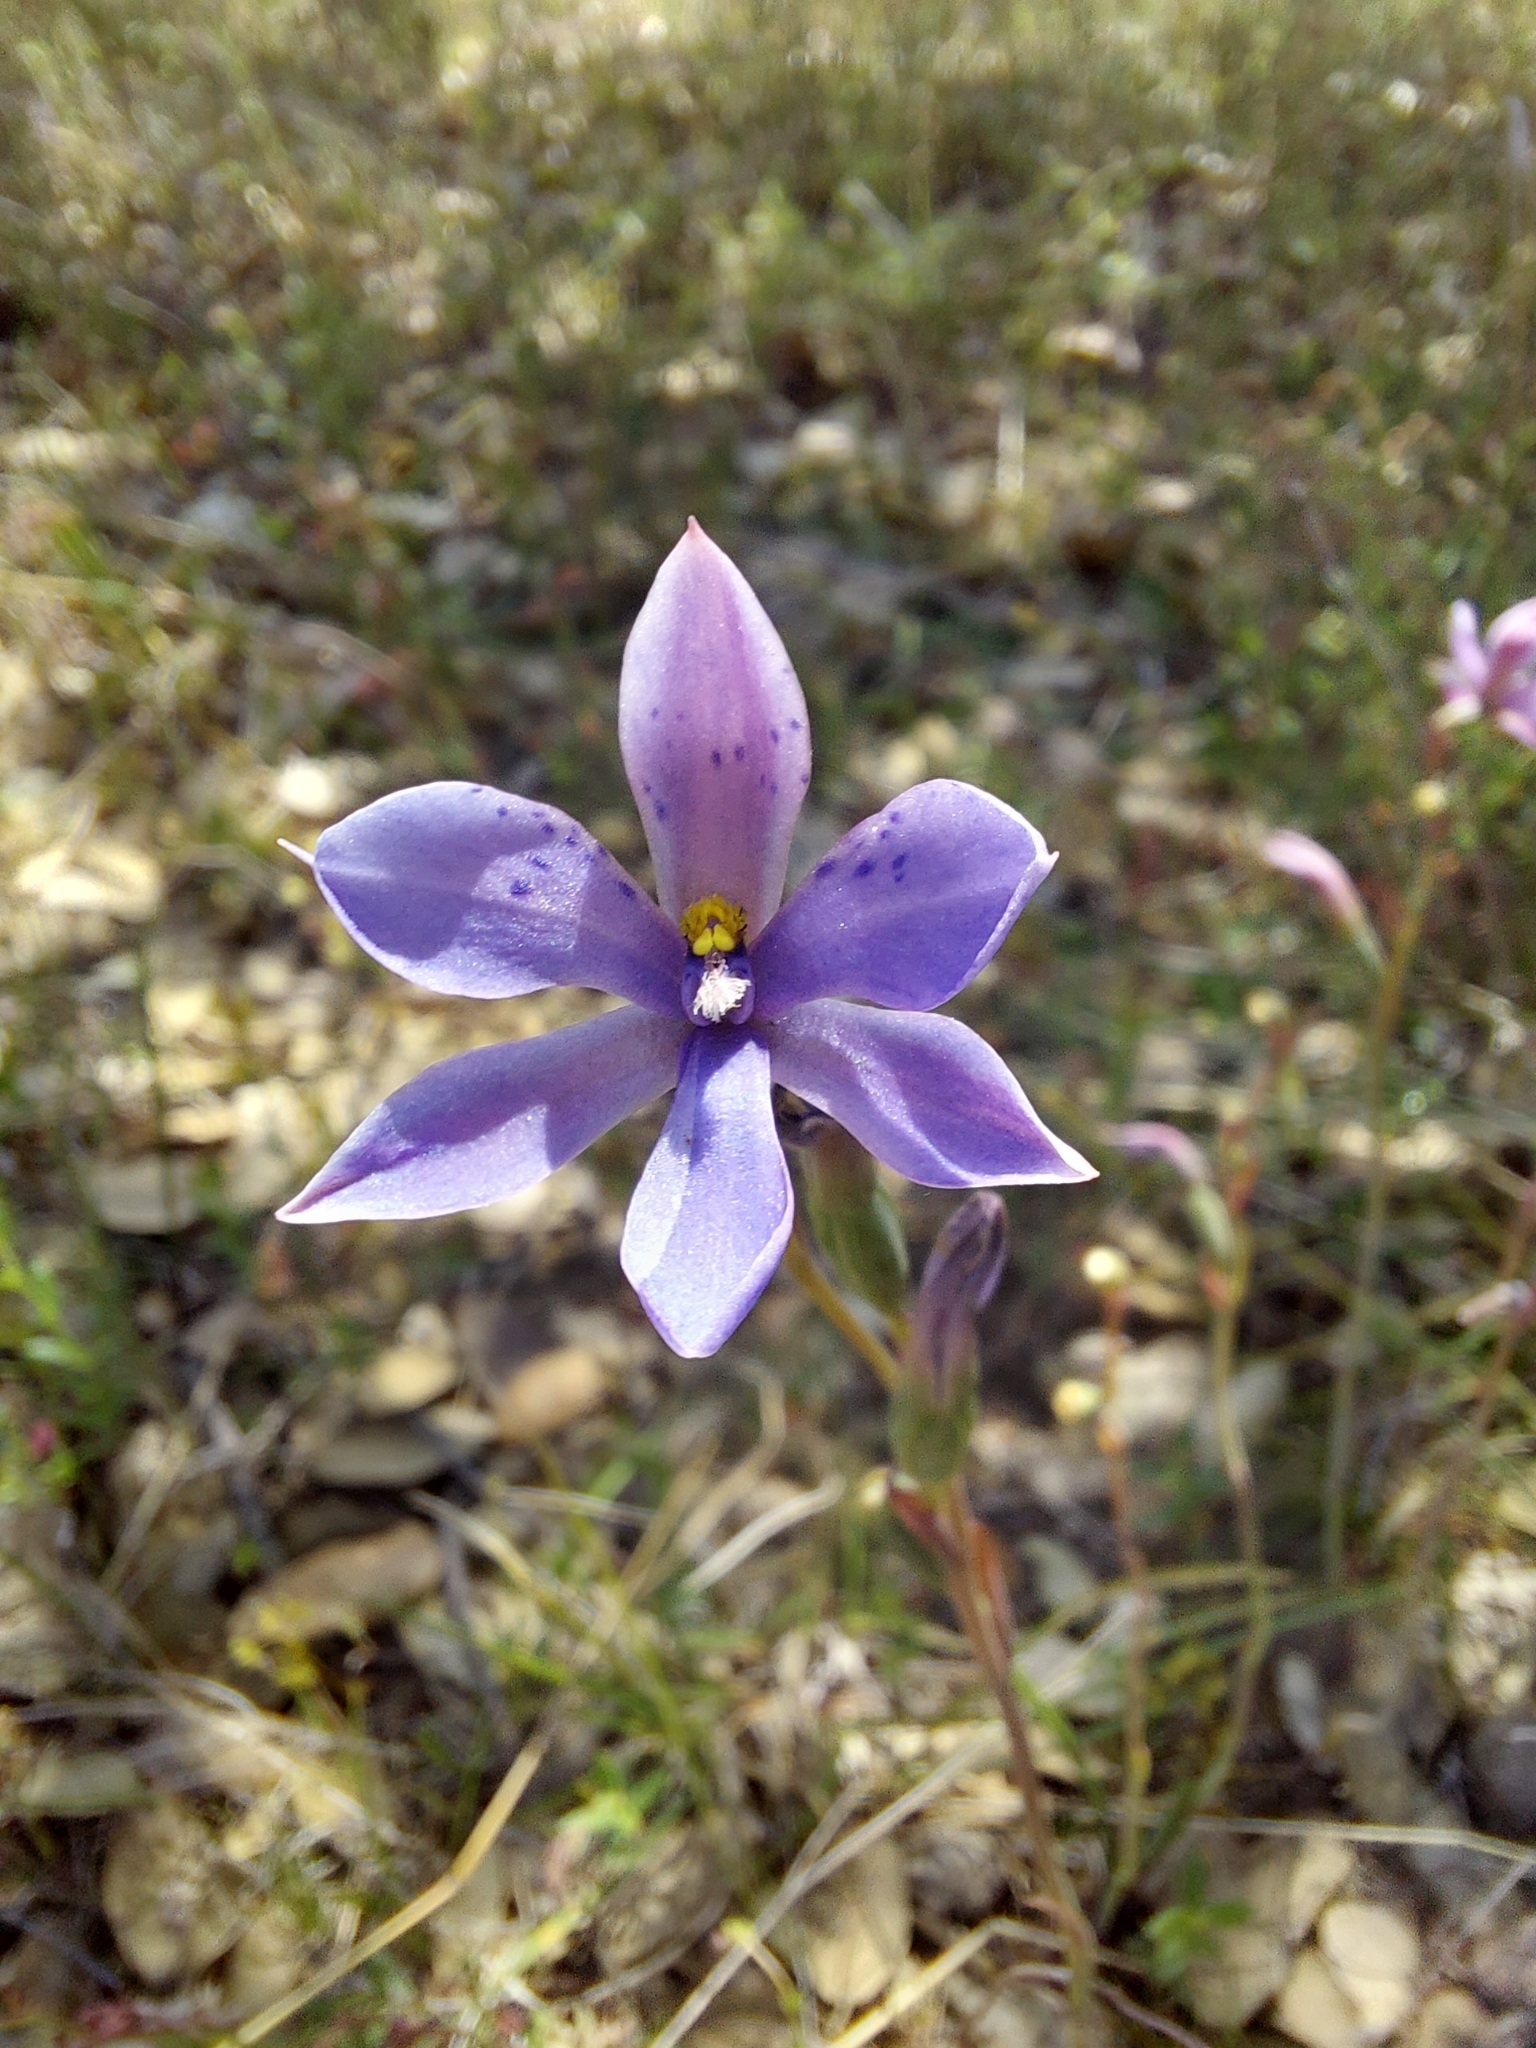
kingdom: Plantae
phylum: Tracheophyta
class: Liliopsida
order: Asparagales
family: Orchidaceae
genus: Thelymitra
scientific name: Thelymitra ixioides
